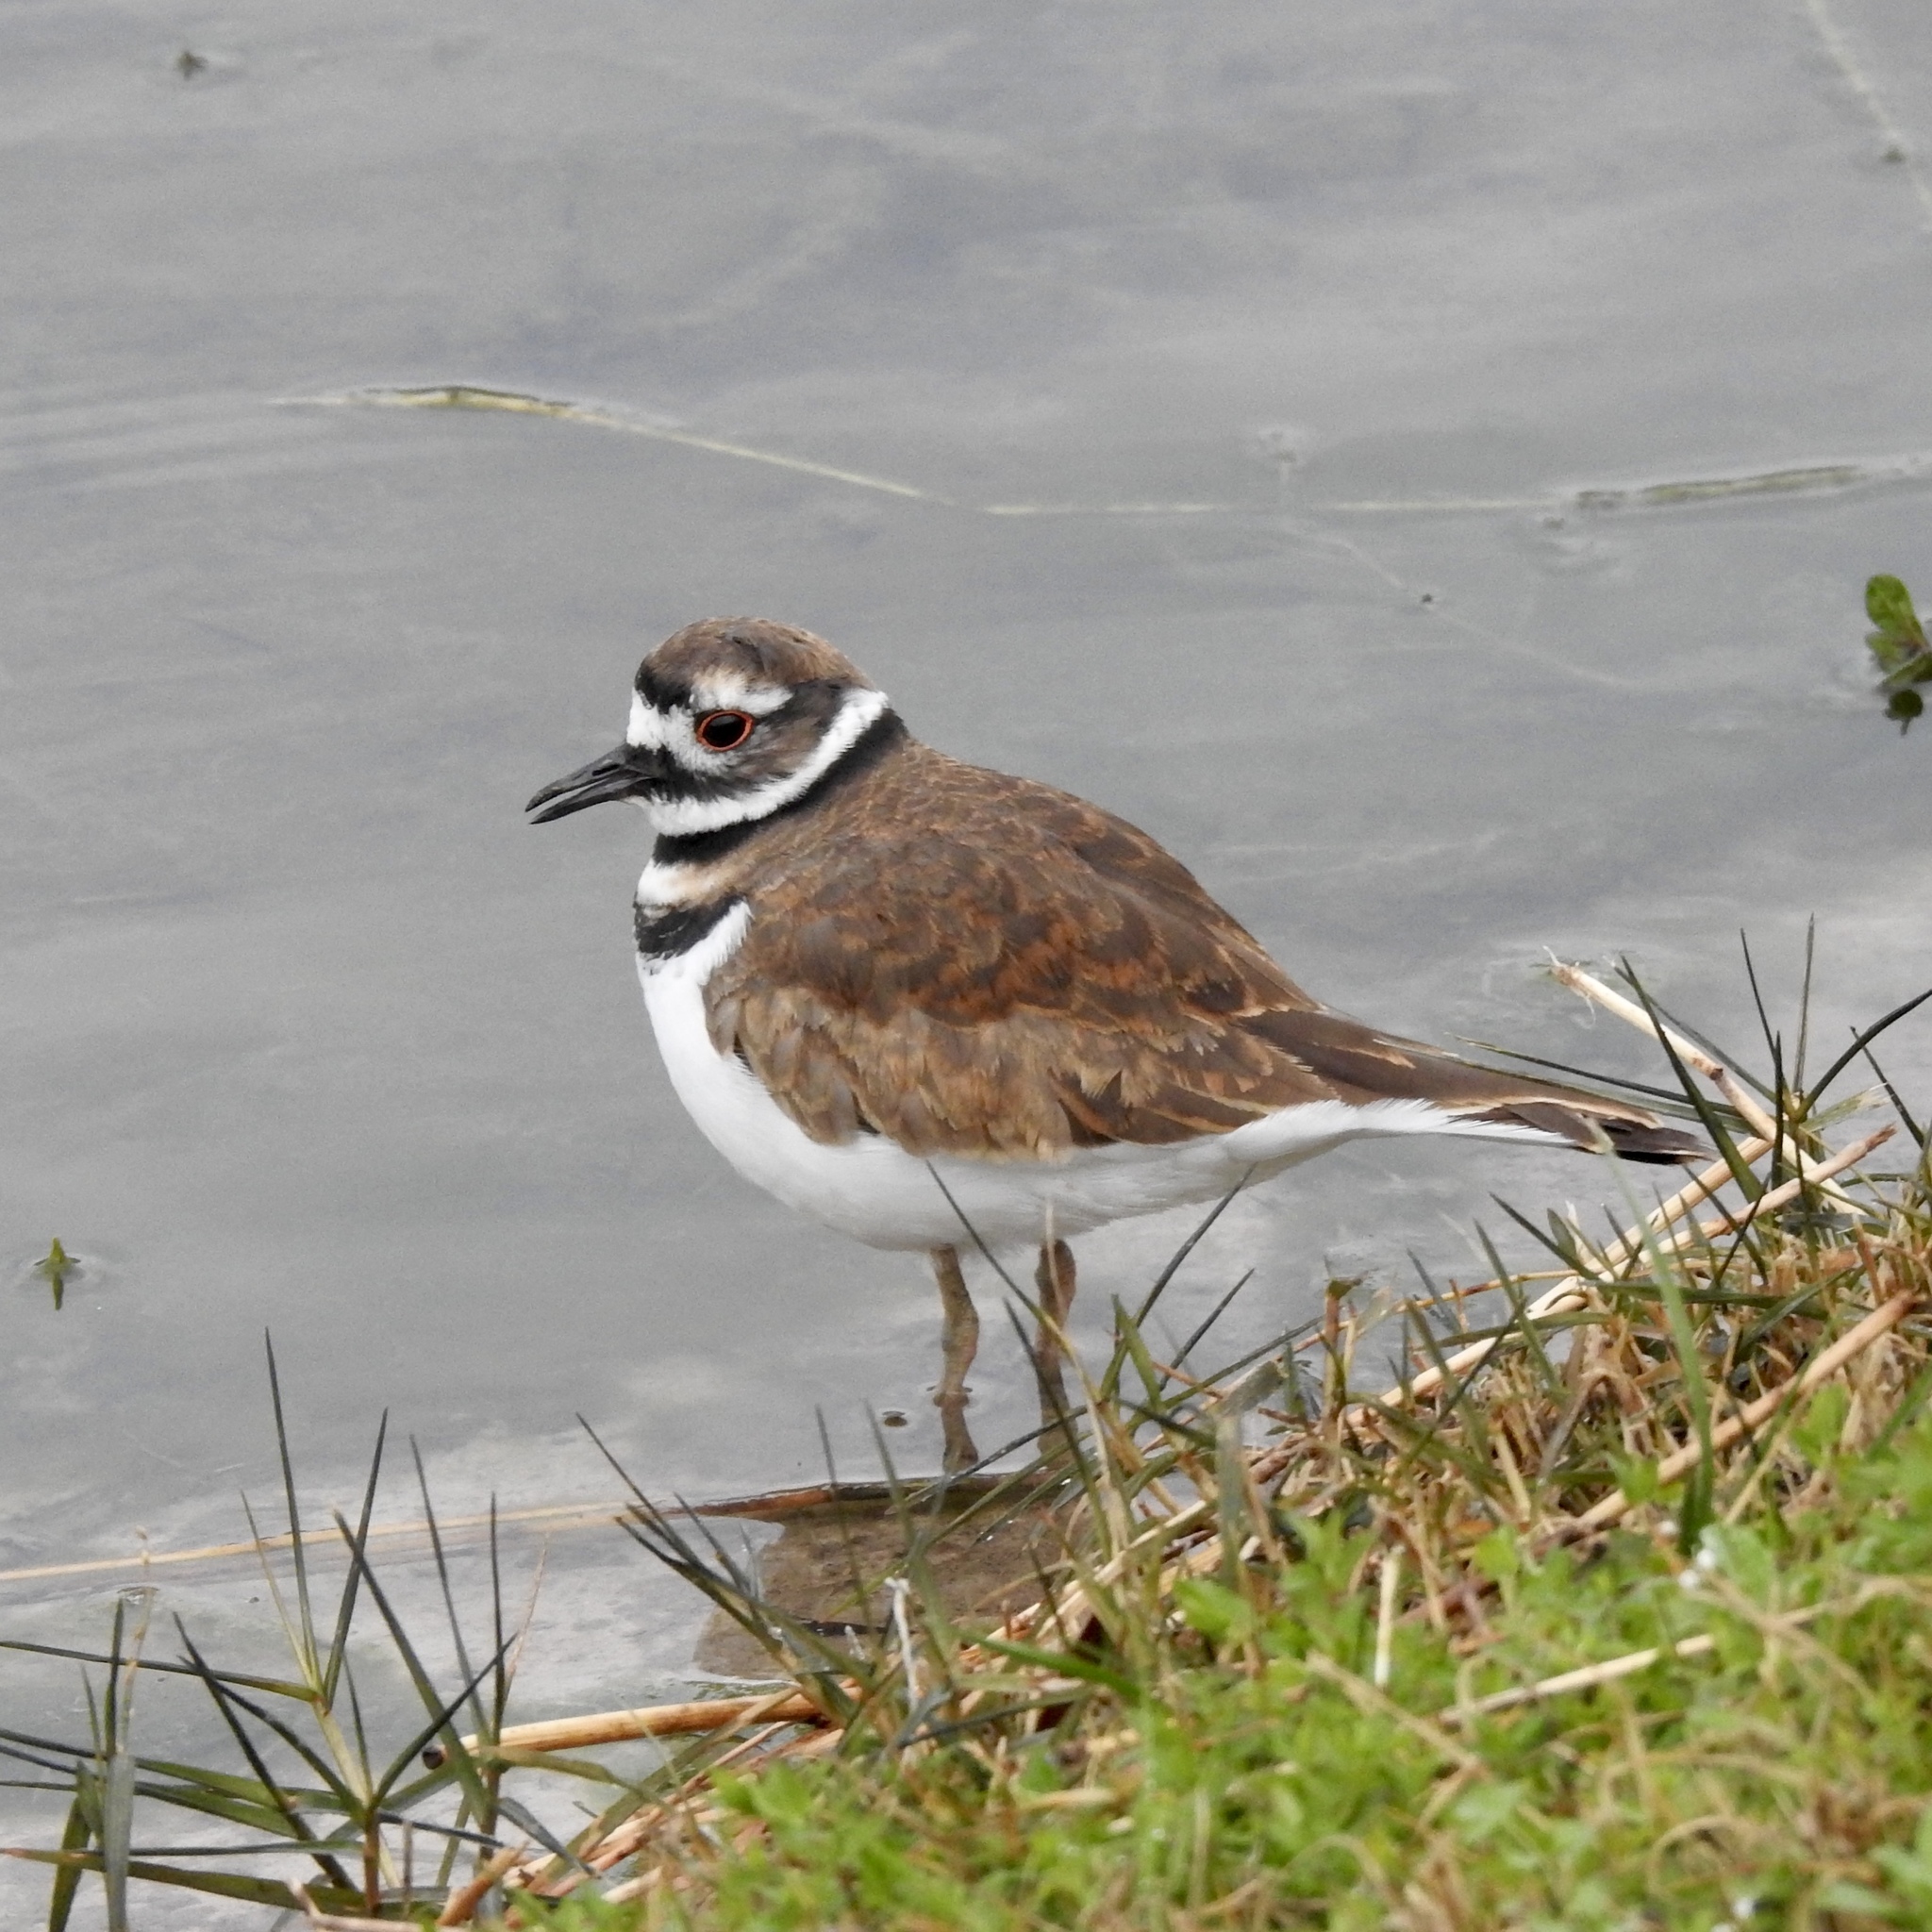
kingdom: Animalia
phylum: Chordata
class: Aves
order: Charadriiformes
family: Charadriidae
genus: Charadrius
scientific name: Charadrius vociferus
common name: Killdeer
